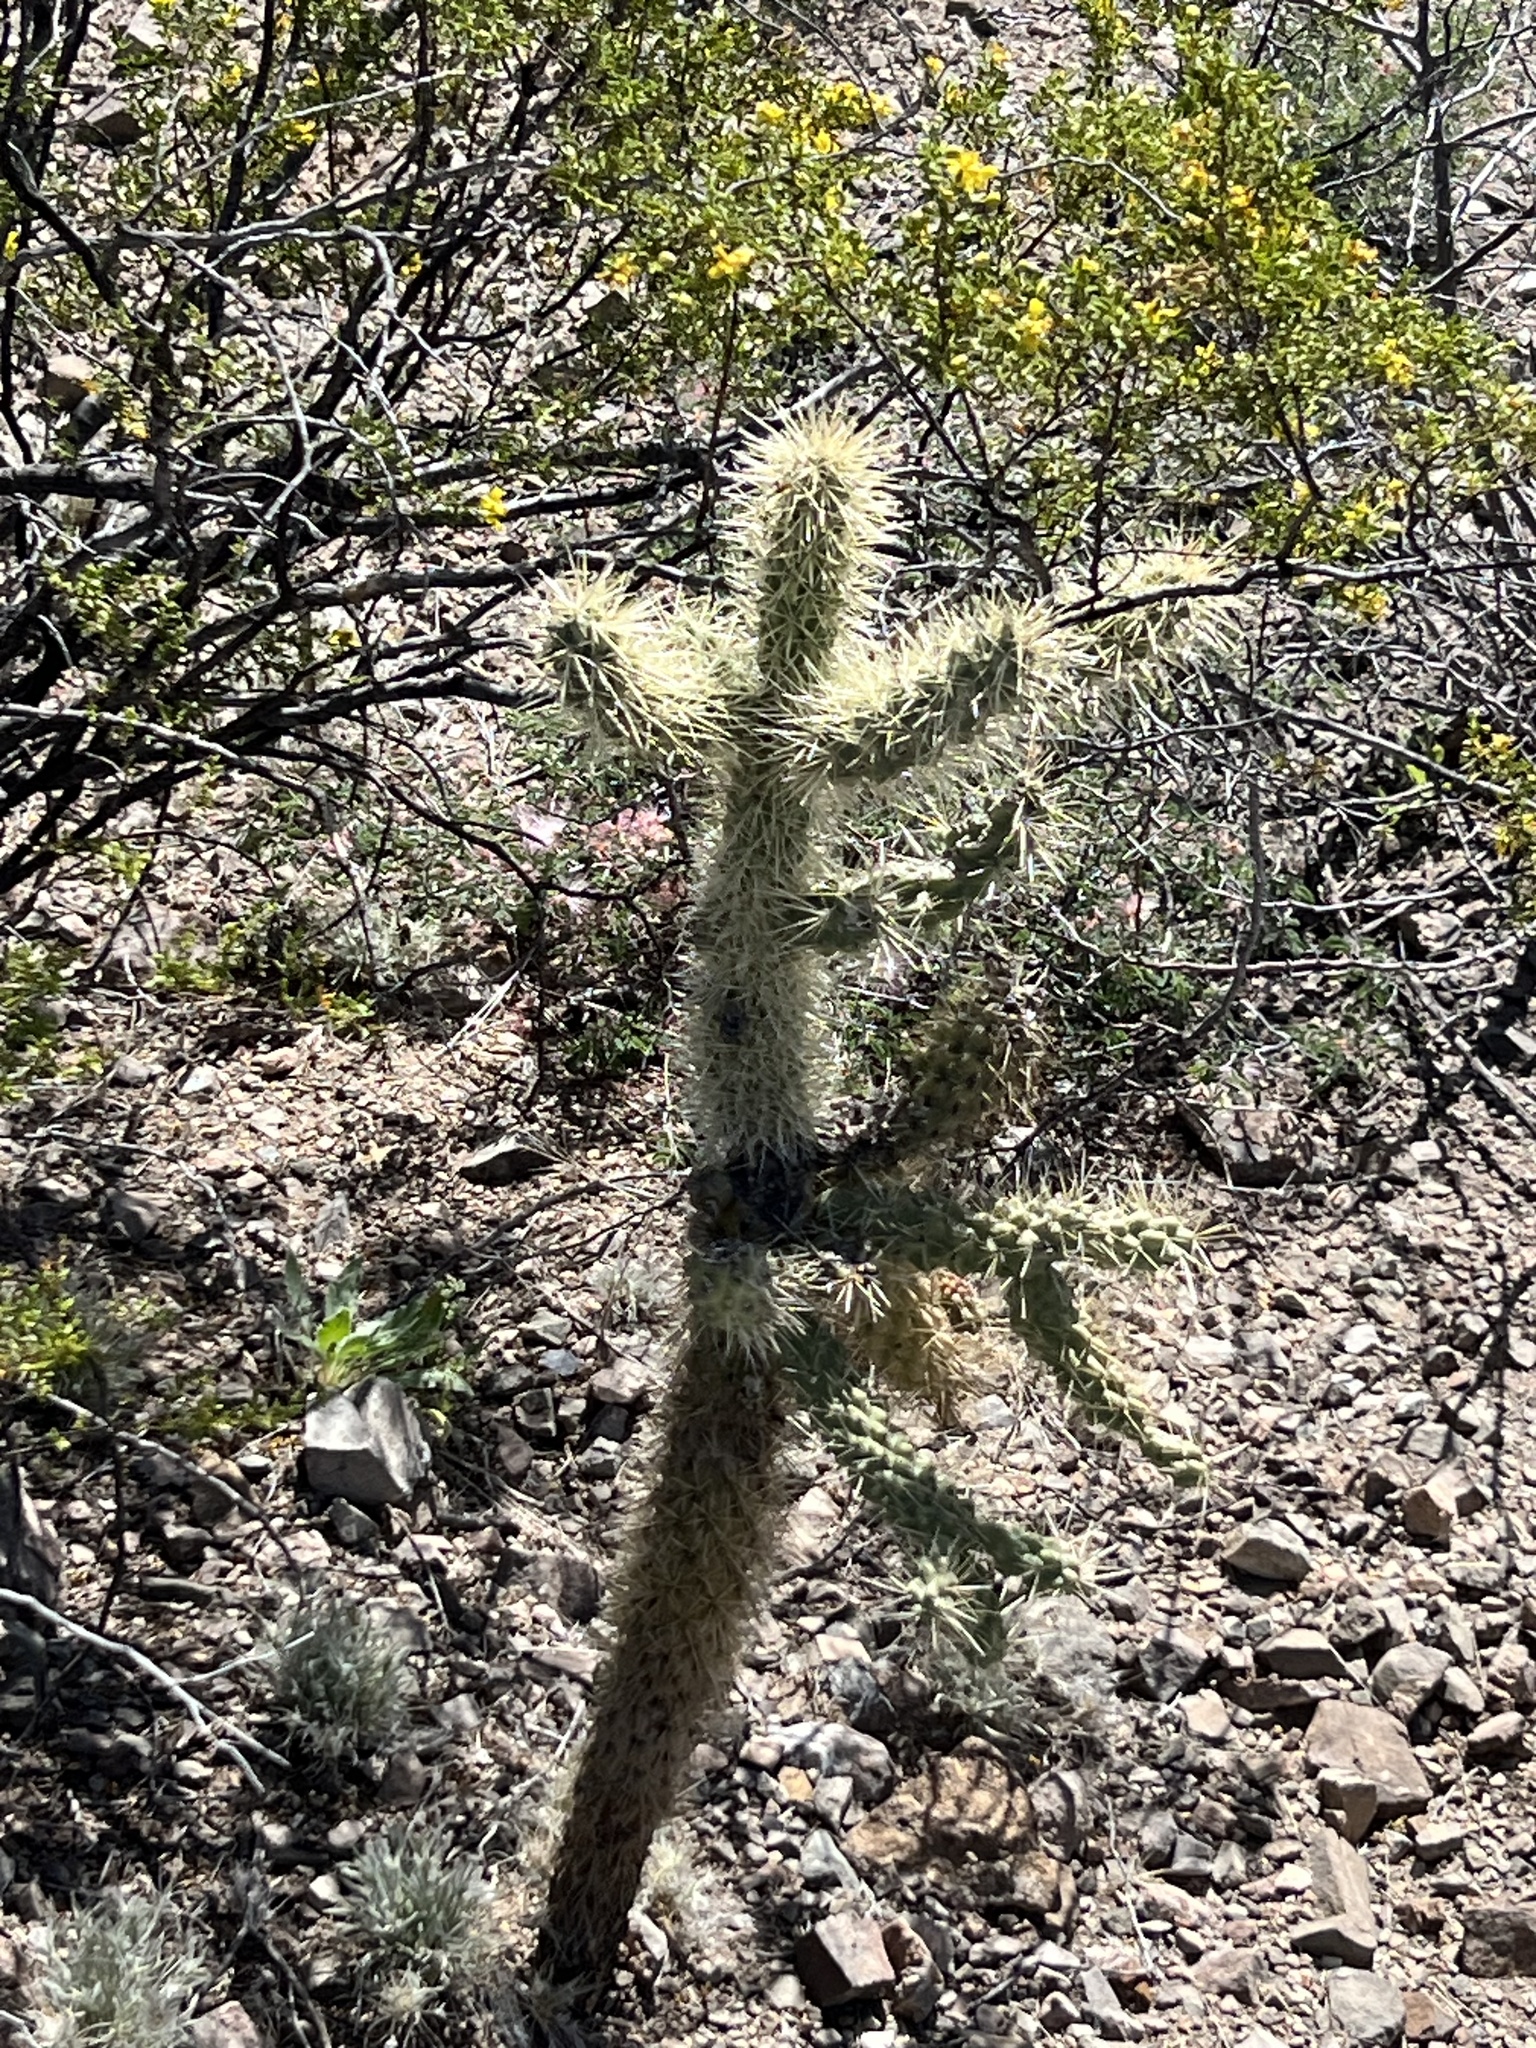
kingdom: Plantae
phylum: Tracheophyta
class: Magnoliopsida
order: Caryophyllales
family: Cactaceae
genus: Cylindropuntia
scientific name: Cylindropuntia fulgida
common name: Jumping cholla
